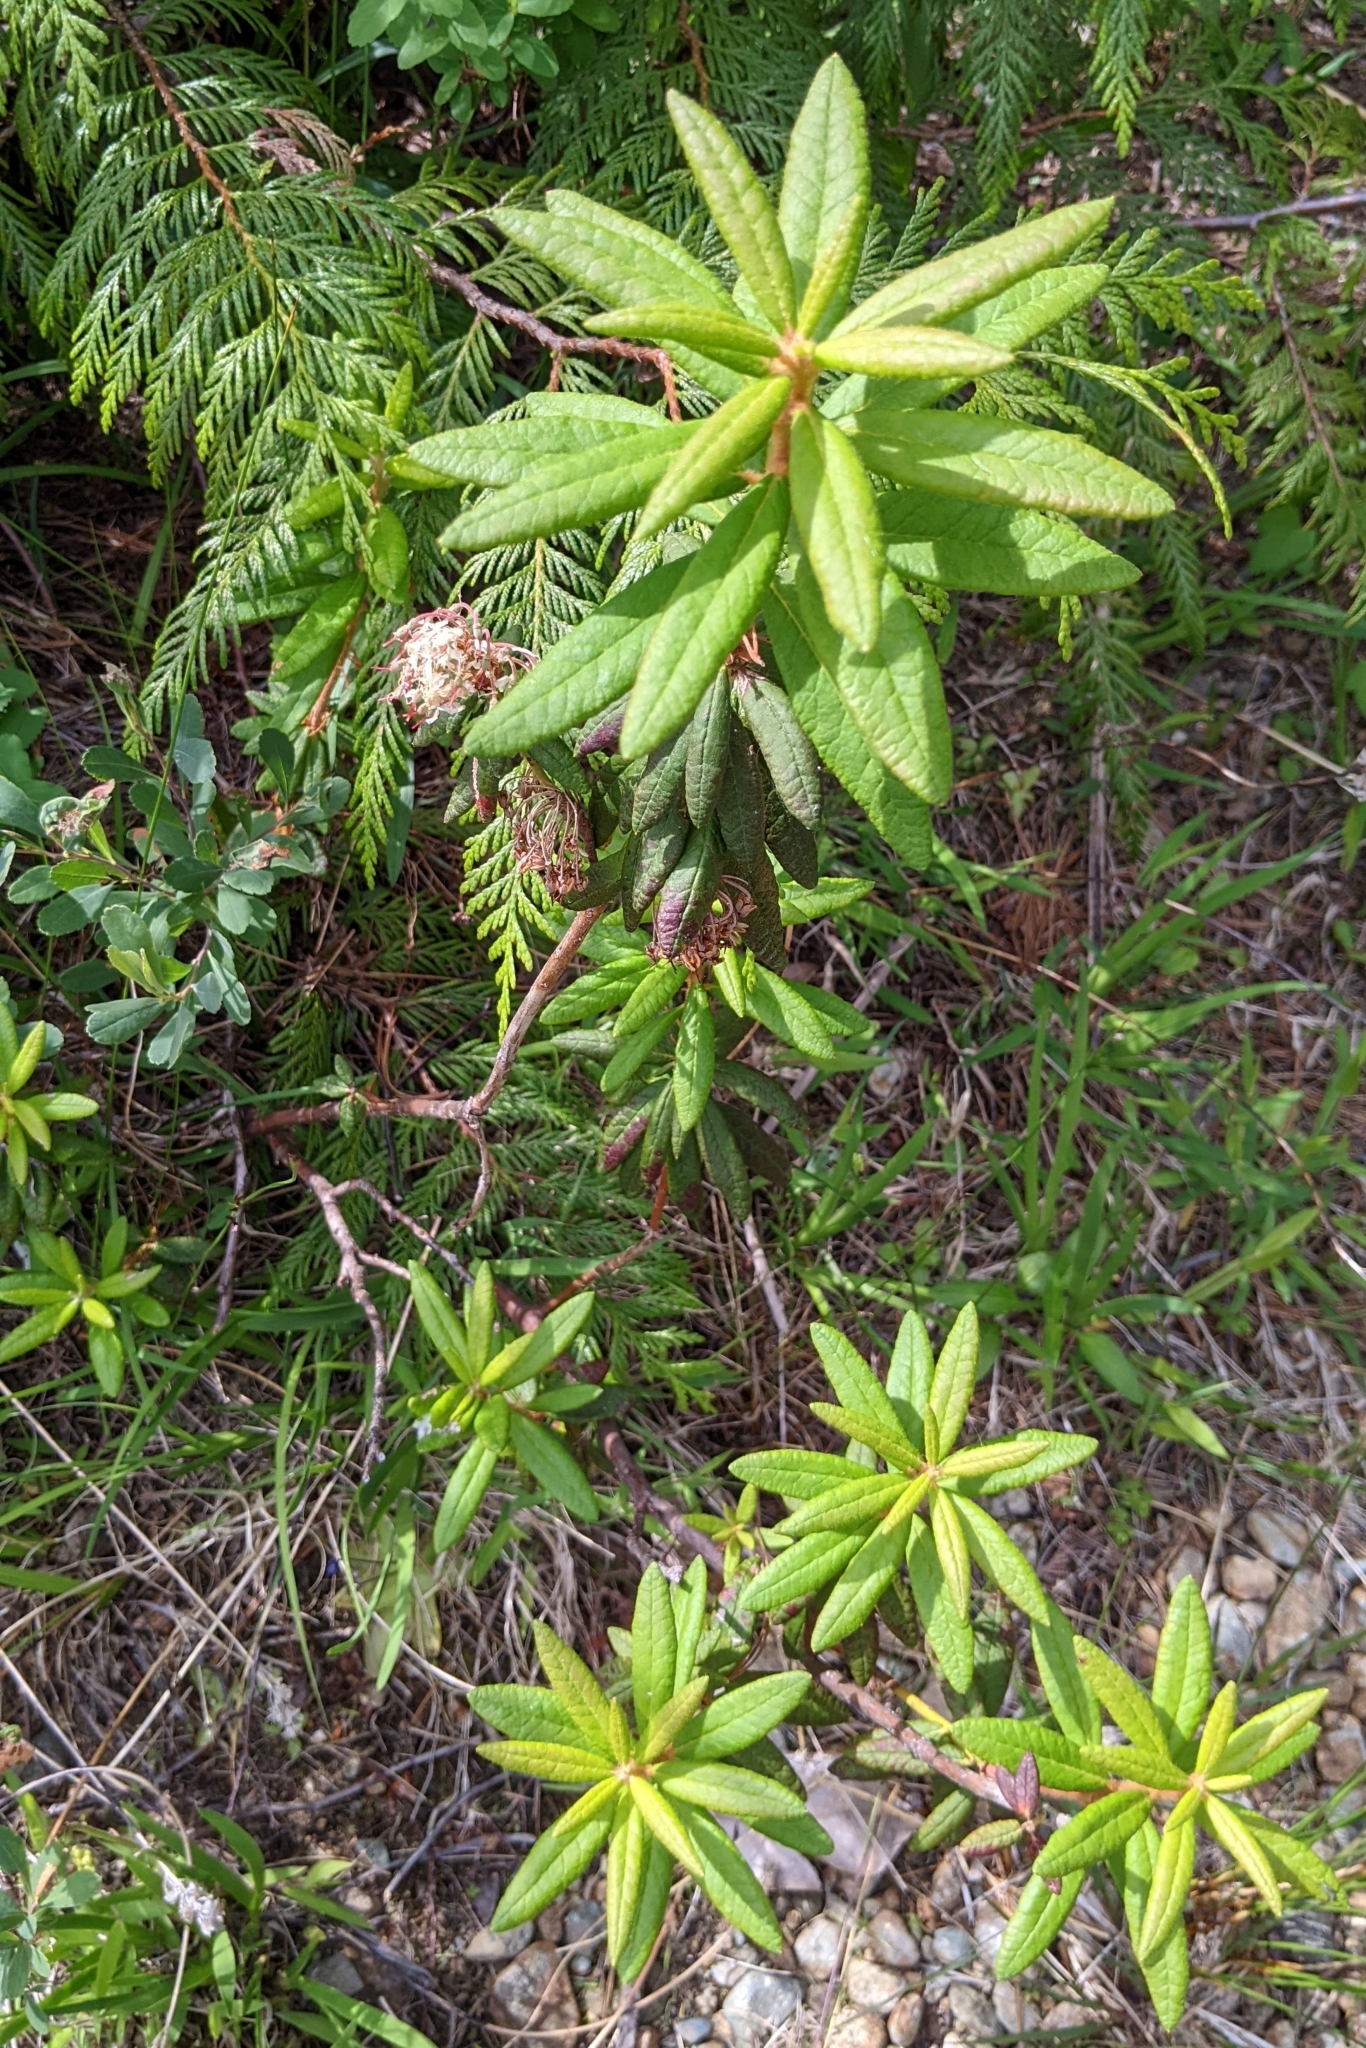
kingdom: Plantae
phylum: Tracheophyta
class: Magnoliopsida
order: Ericales
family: Ericaceae
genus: Rhododendron
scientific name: Rhododendron groenlandicum
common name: Bog labrador tea
